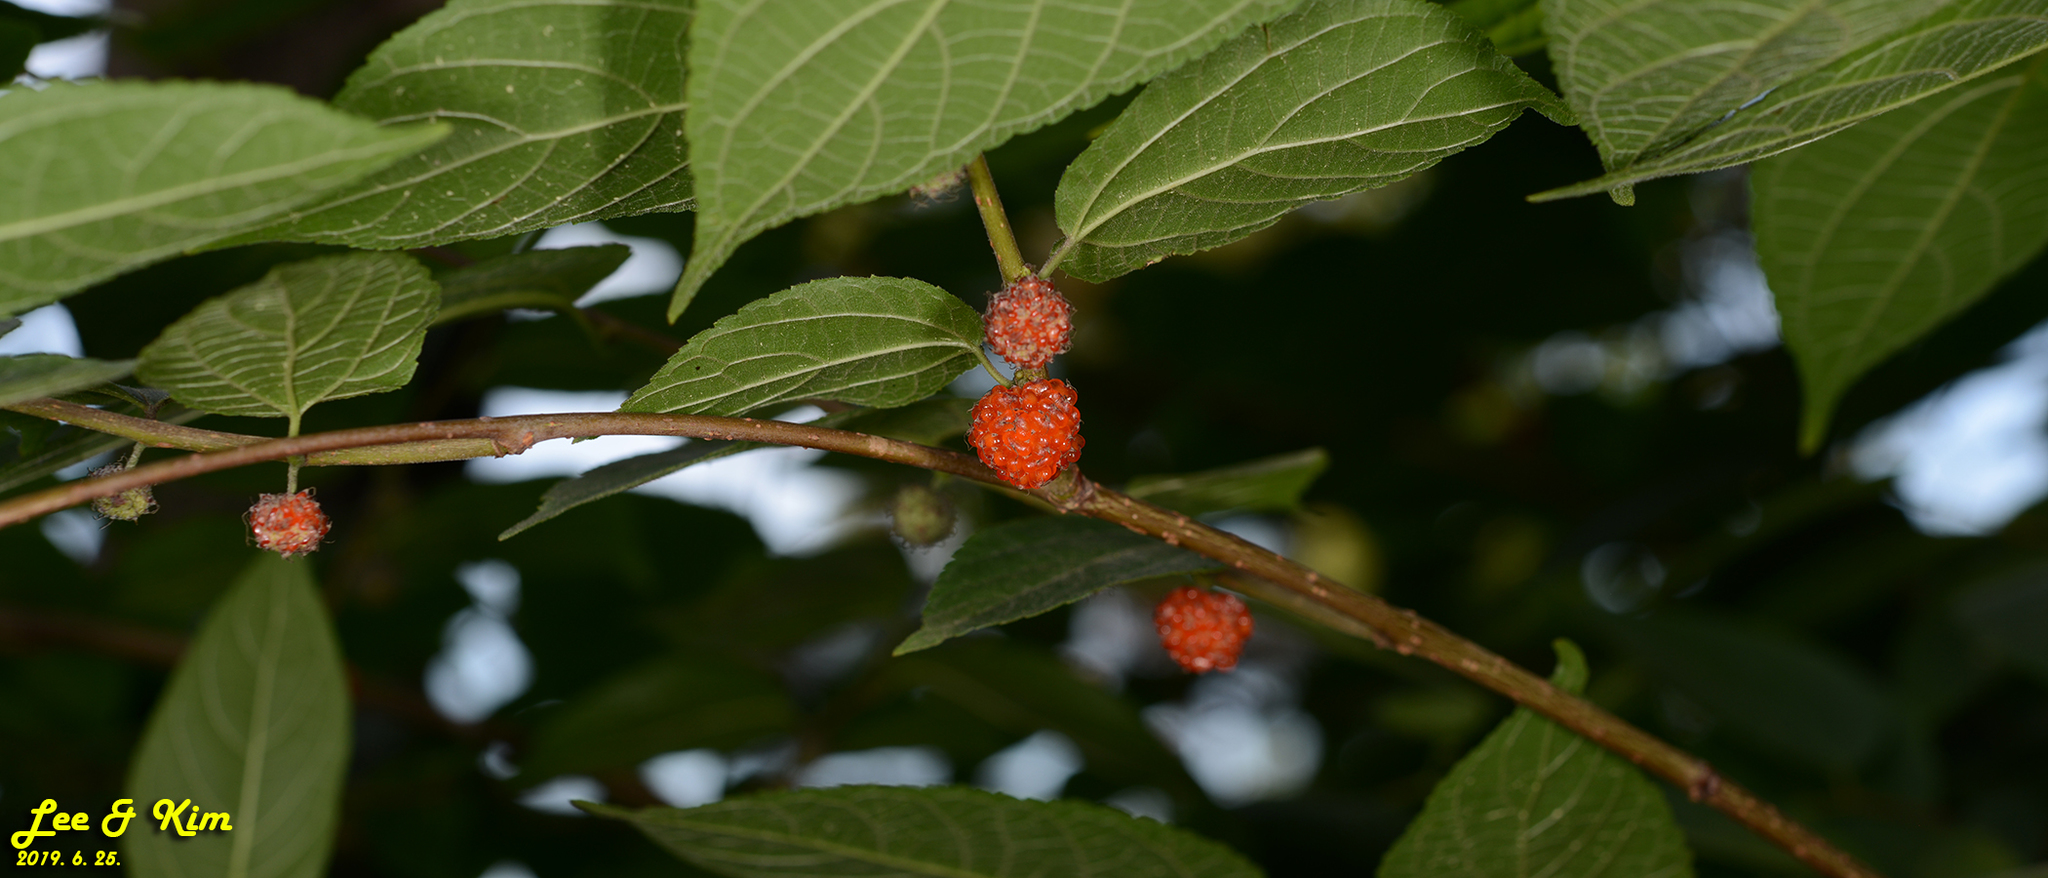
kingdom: Plantae
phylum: Tracheophyta
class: Magnoliopsida
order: Rosales
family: Moraceae
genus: Broussonetia
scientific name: Broussonetia papyrifera
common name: Paper mulberry
